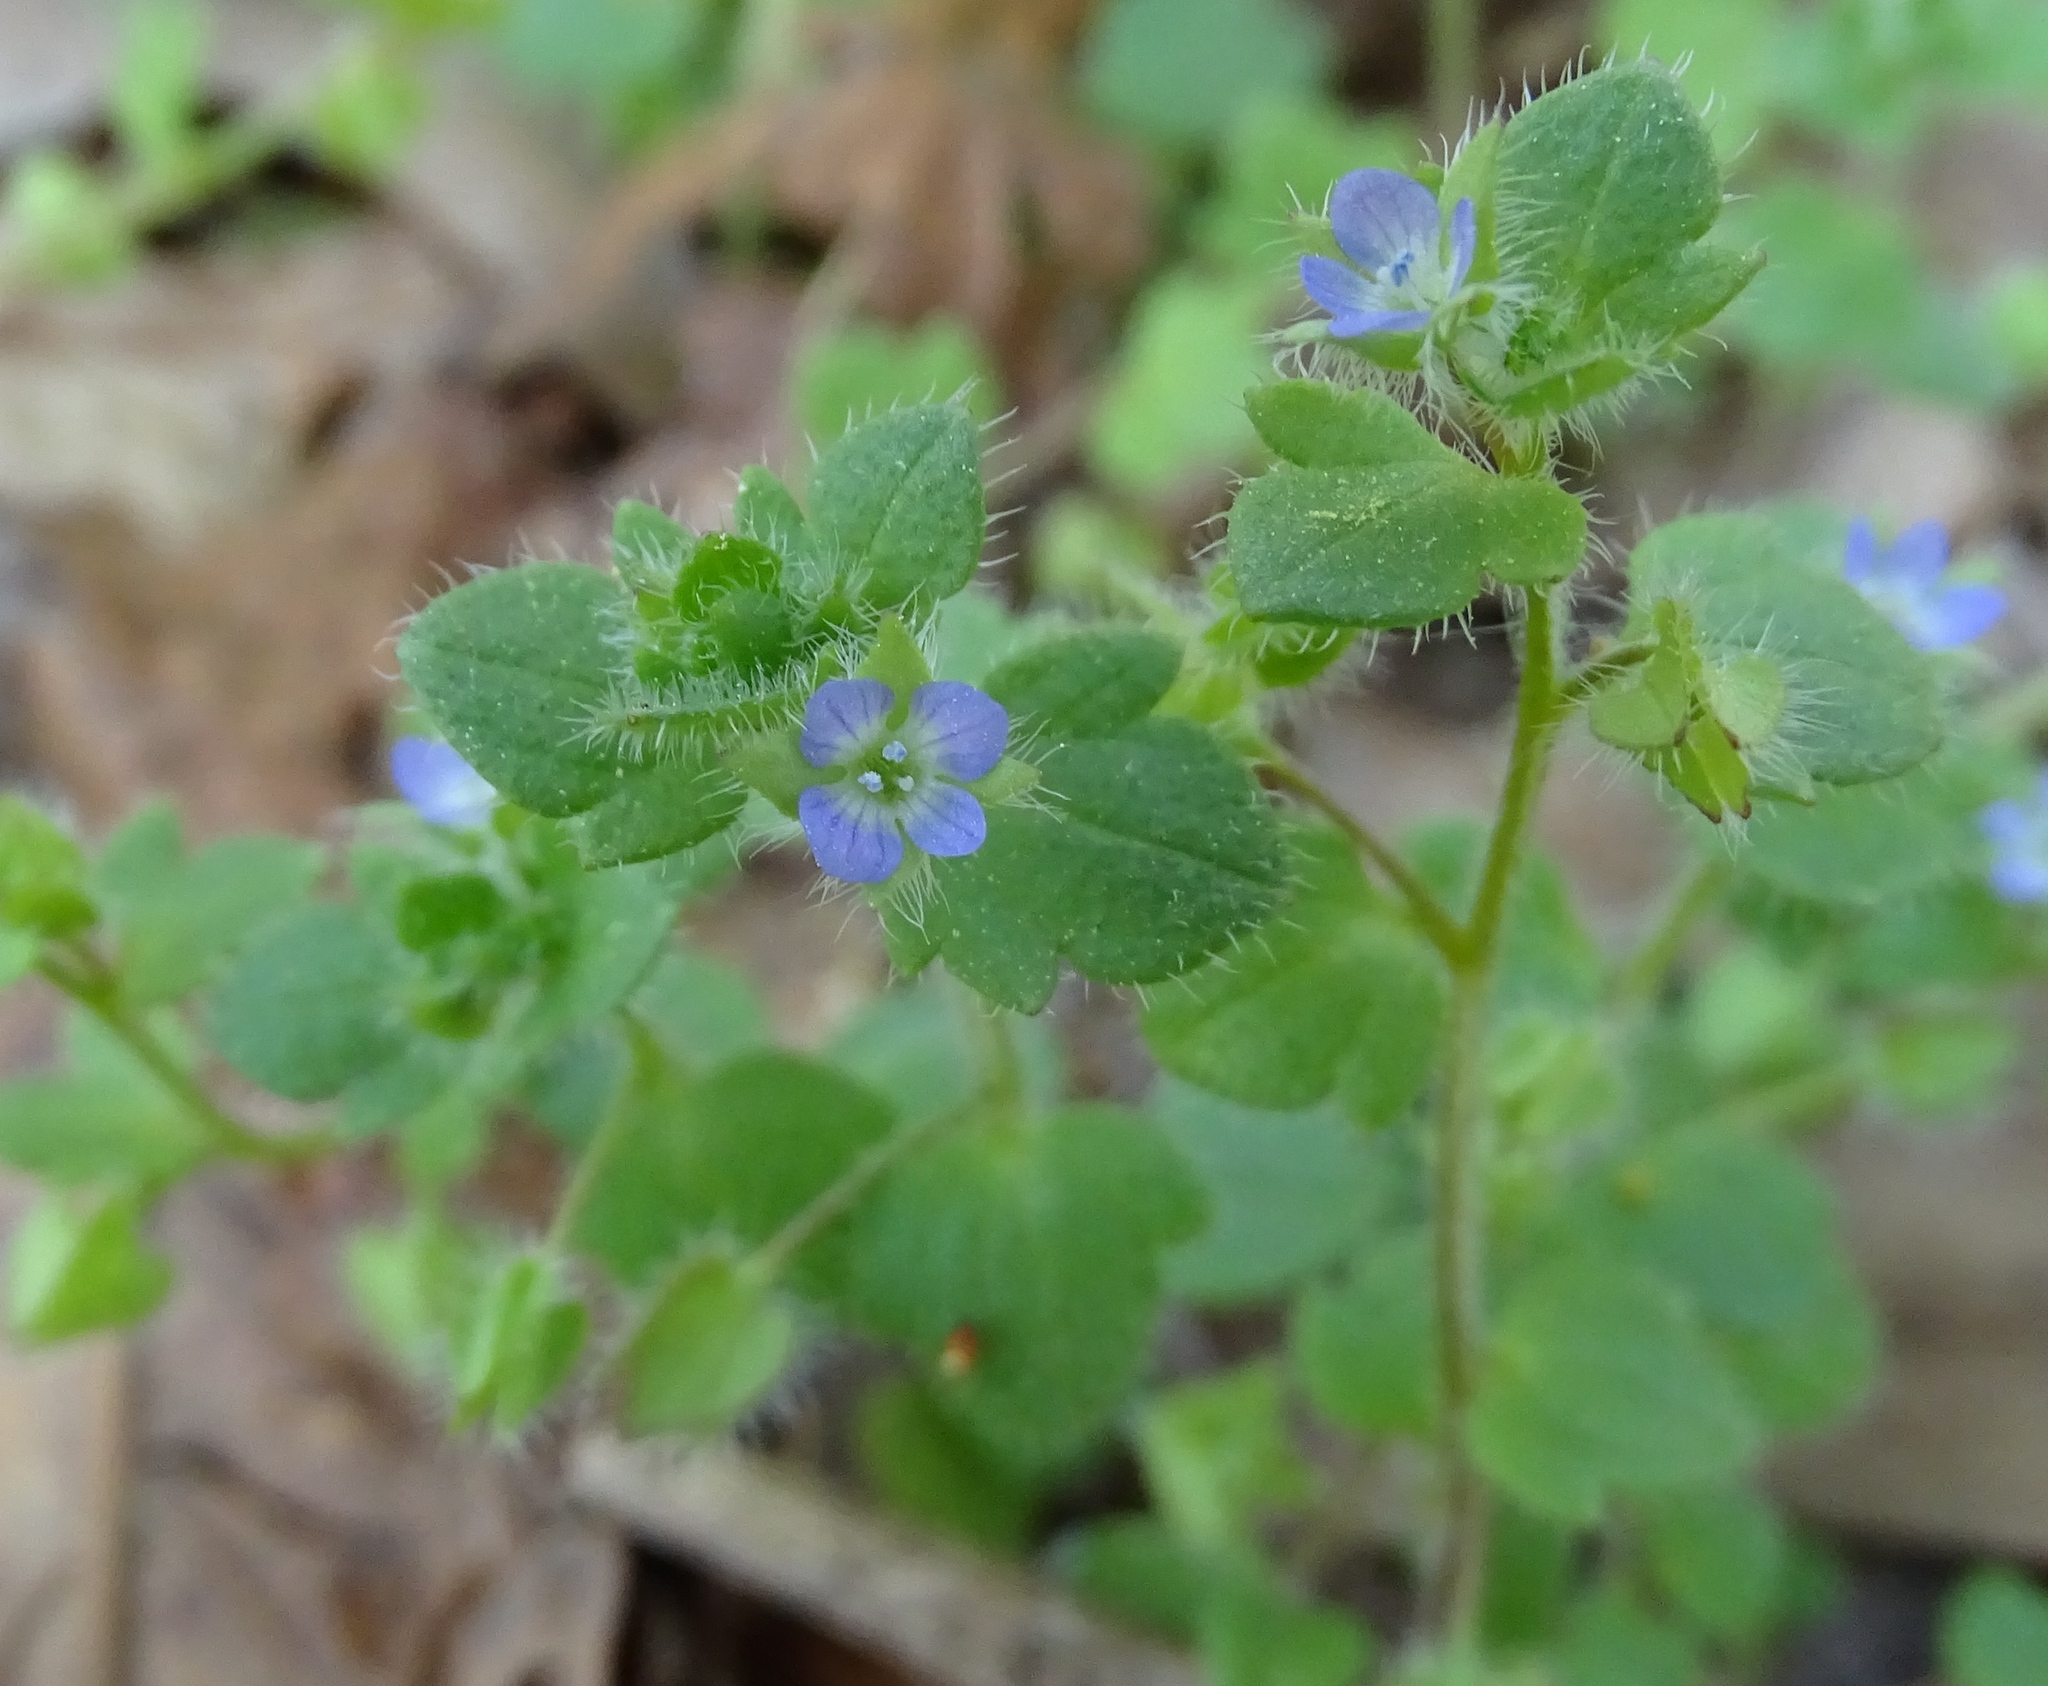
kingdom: Plantae
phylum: Tracheophyta
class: Magnoliopsida
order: Lamiales
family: Plantaginaceae
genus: Veronica
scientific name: Veronica hederifolia
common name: Ivy-leaved speedwell
